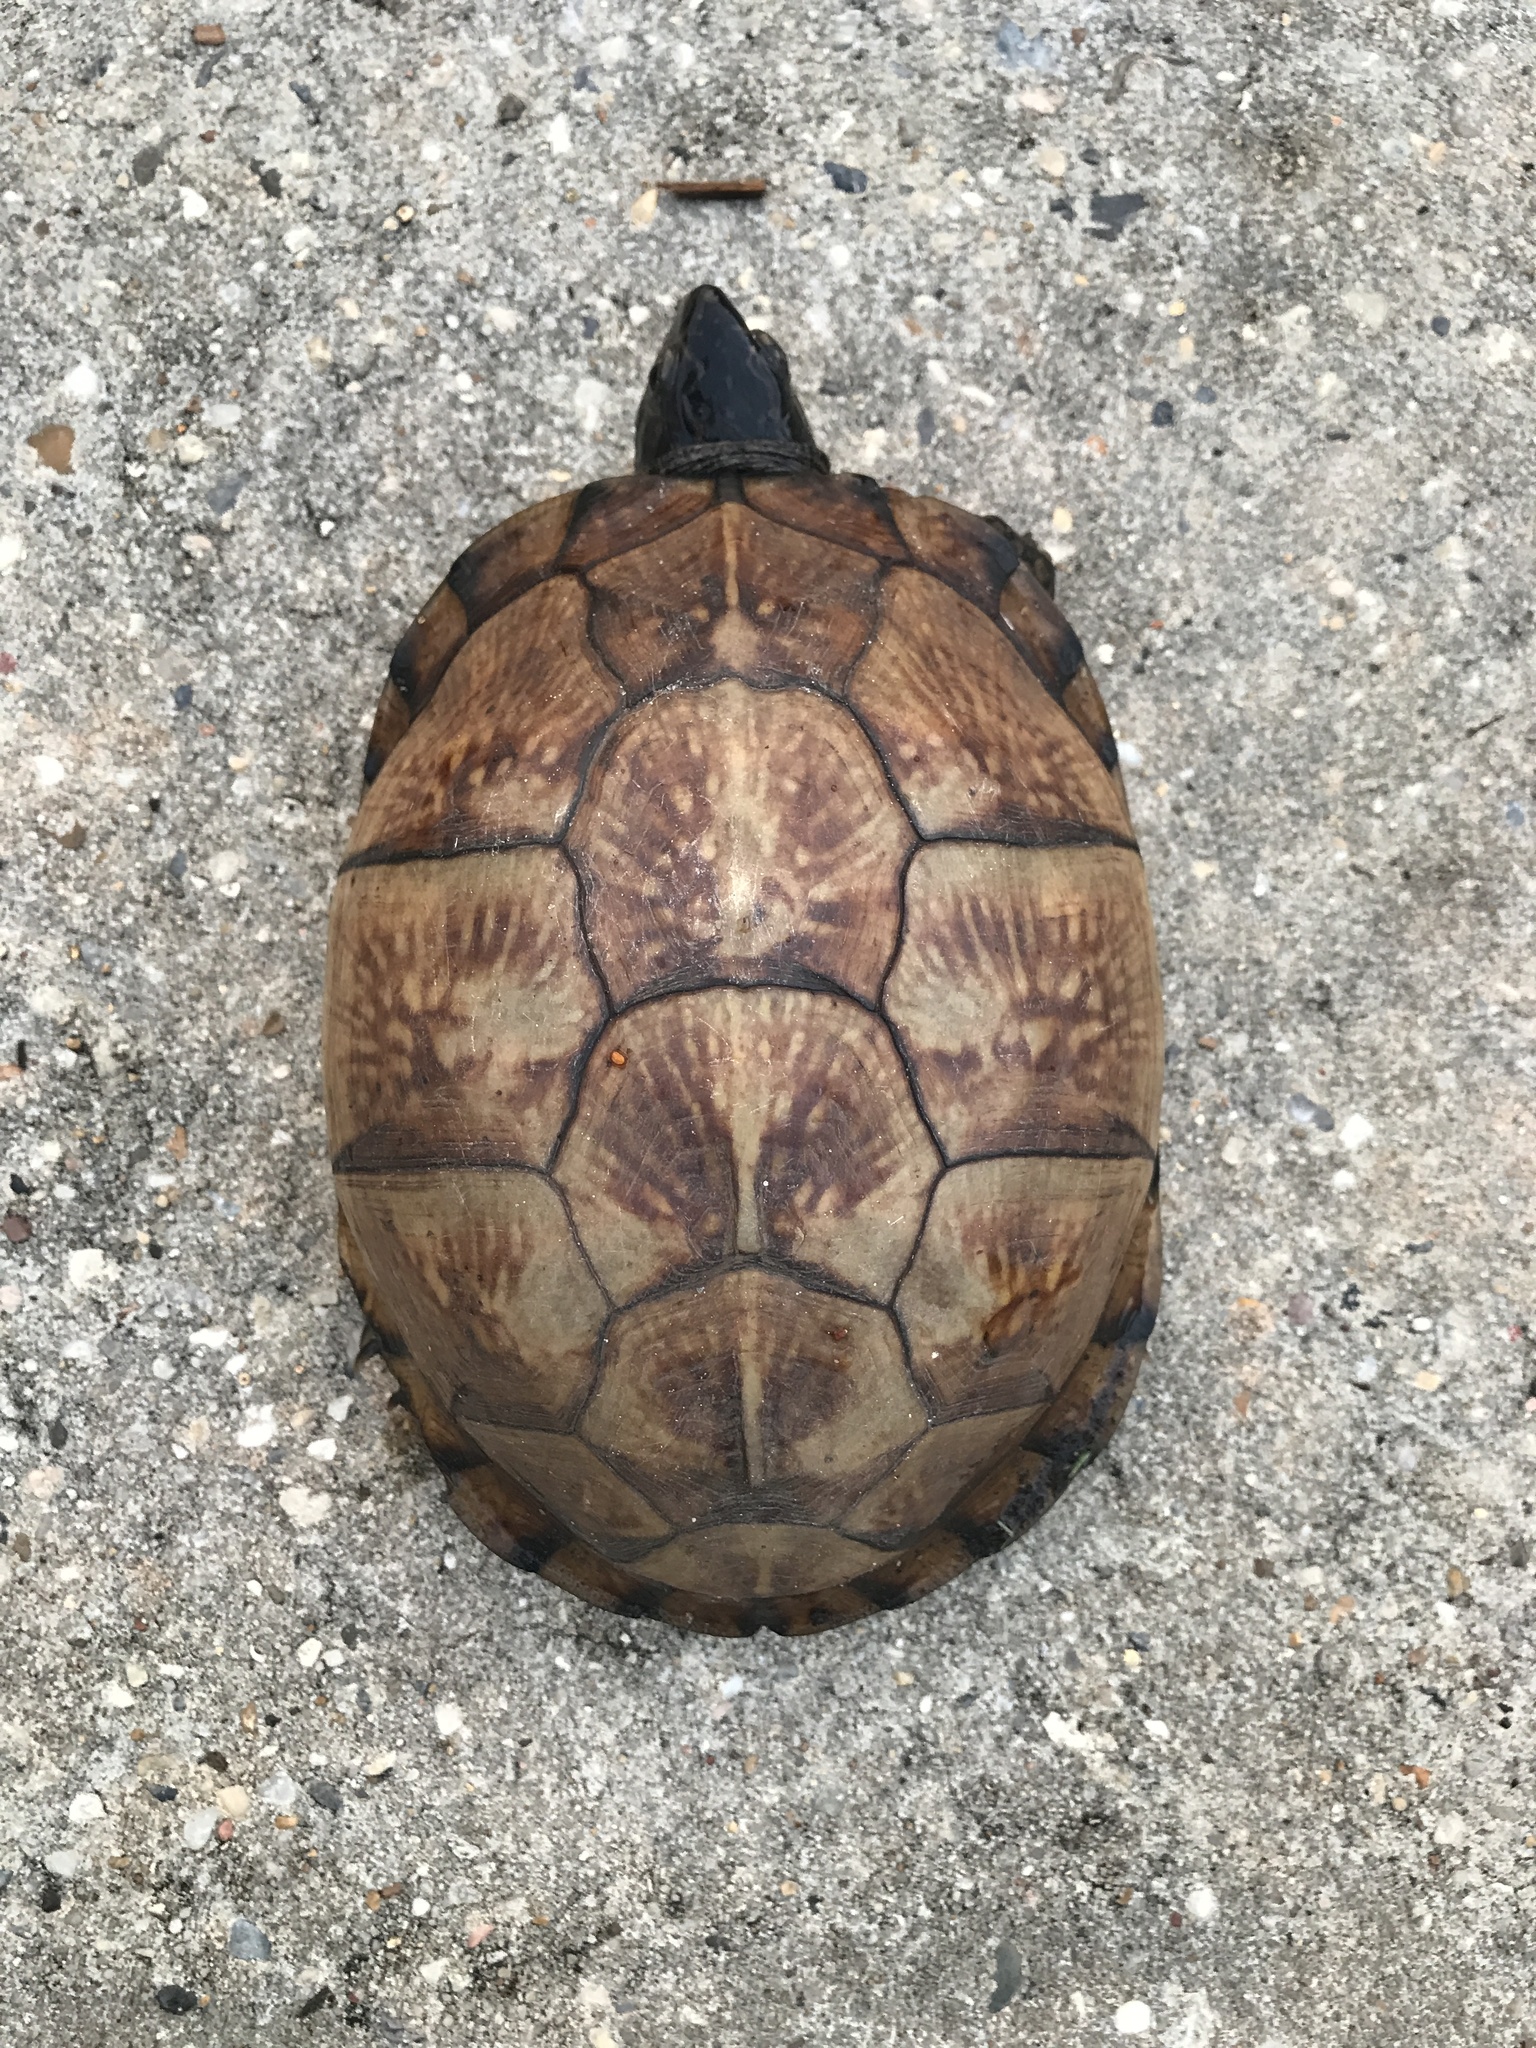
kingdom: Animalia
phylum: Chordata
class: Testudines
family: Emydidae
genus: Terrapene
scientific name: Terrapene carolina
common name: Common box turtle
